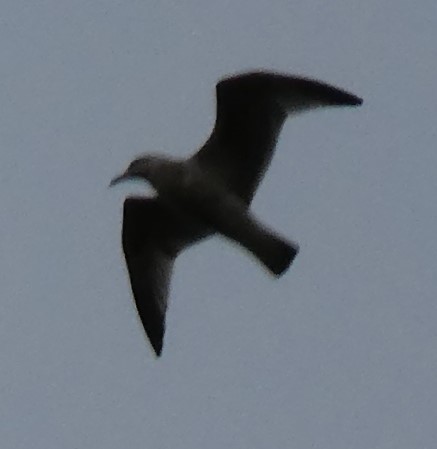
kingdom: Animalia
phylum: Chordata
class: Aves
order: Charadriiformes
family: Laridae
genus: Larus
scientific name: Larus
